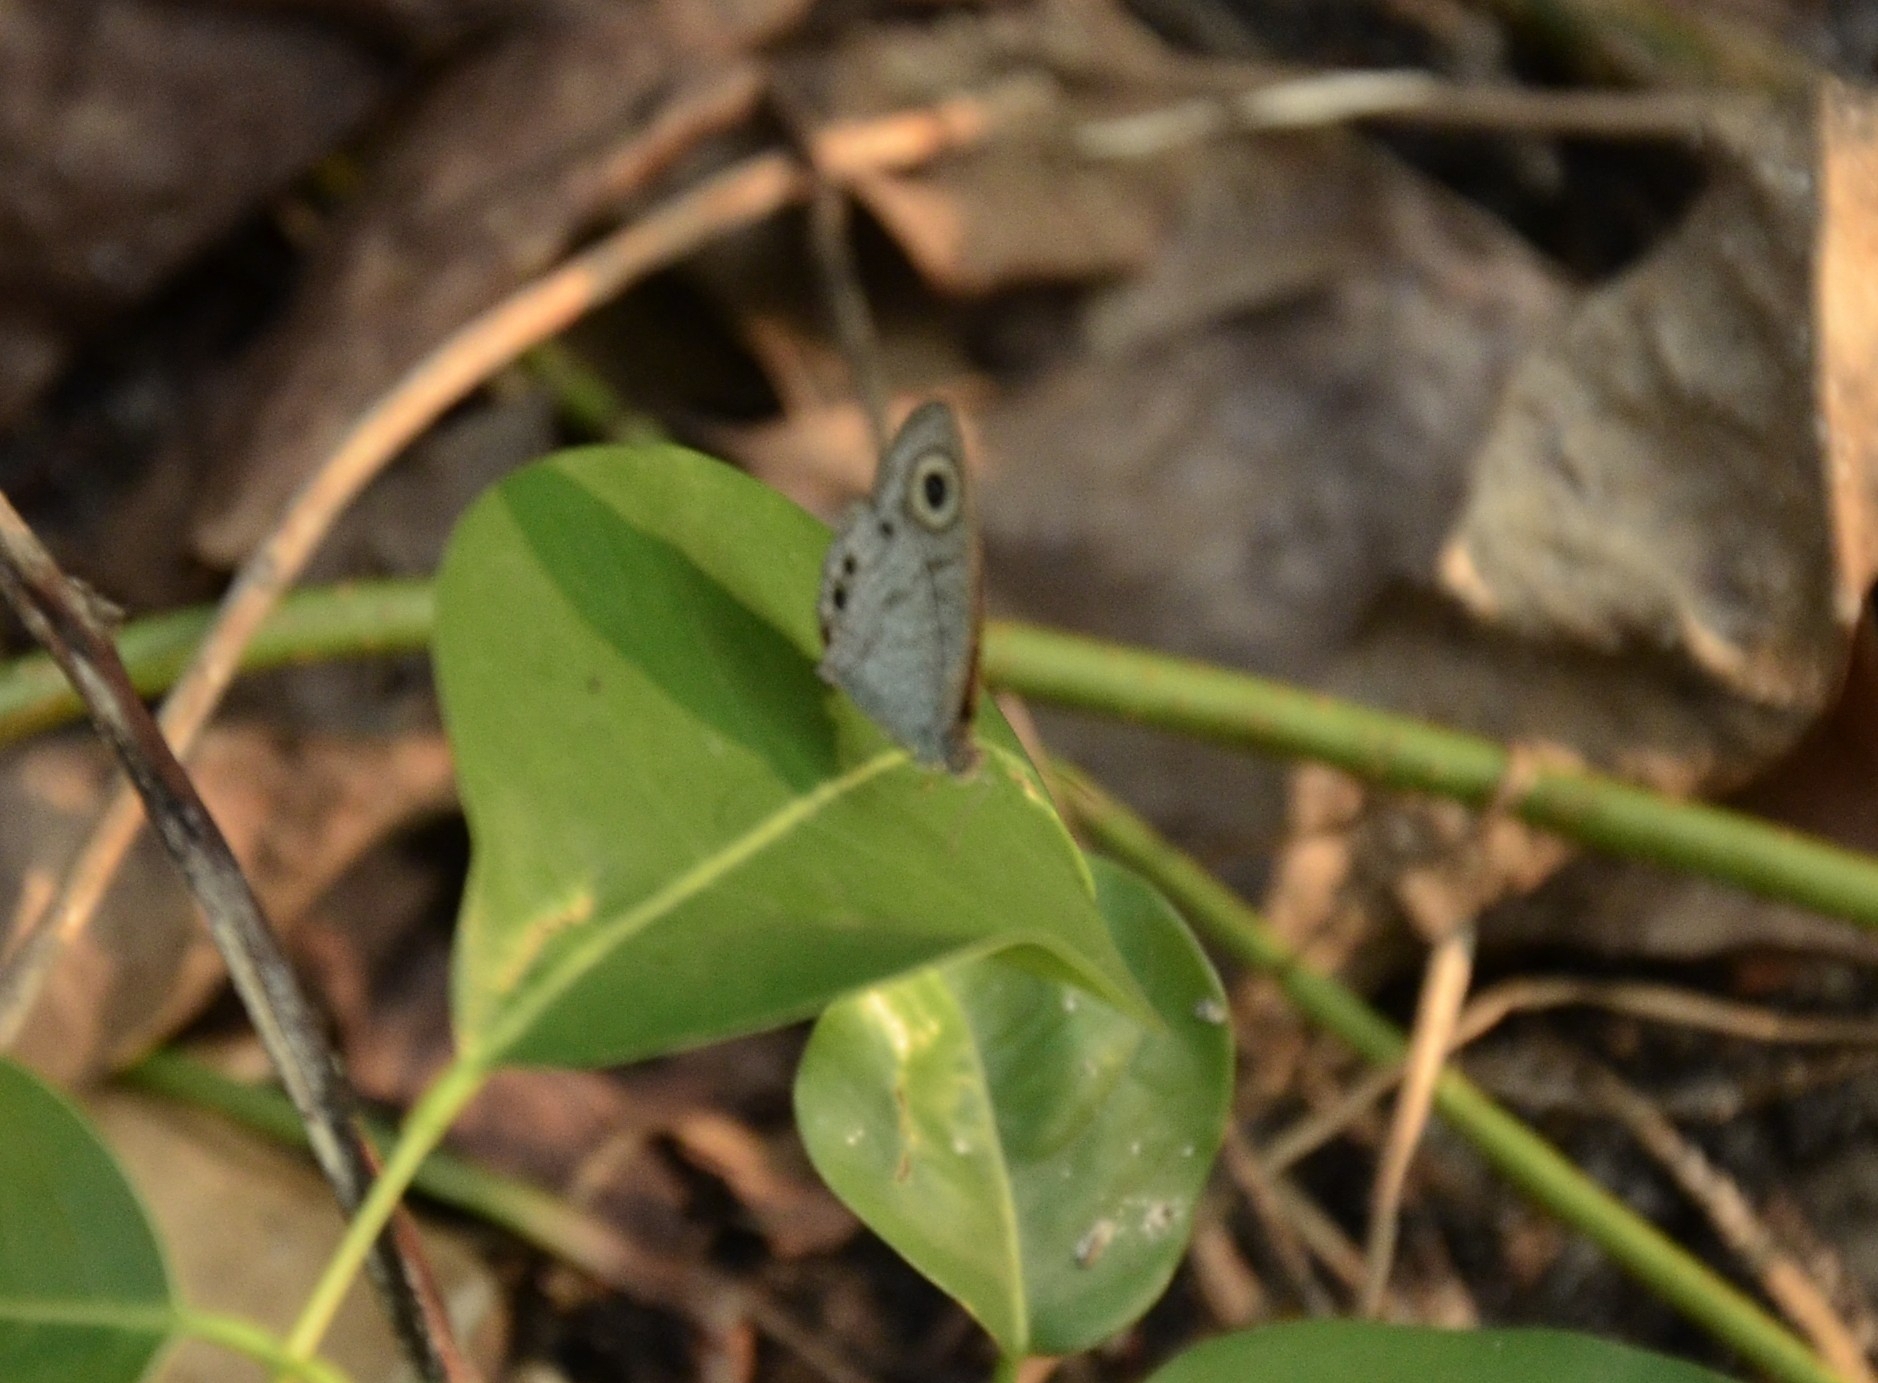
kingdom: Animalia
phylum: Arthropoda
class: Insecta
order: Lepidoptera
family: Nymphalidae
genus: Ypthima
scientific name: Ypthima huebneri
